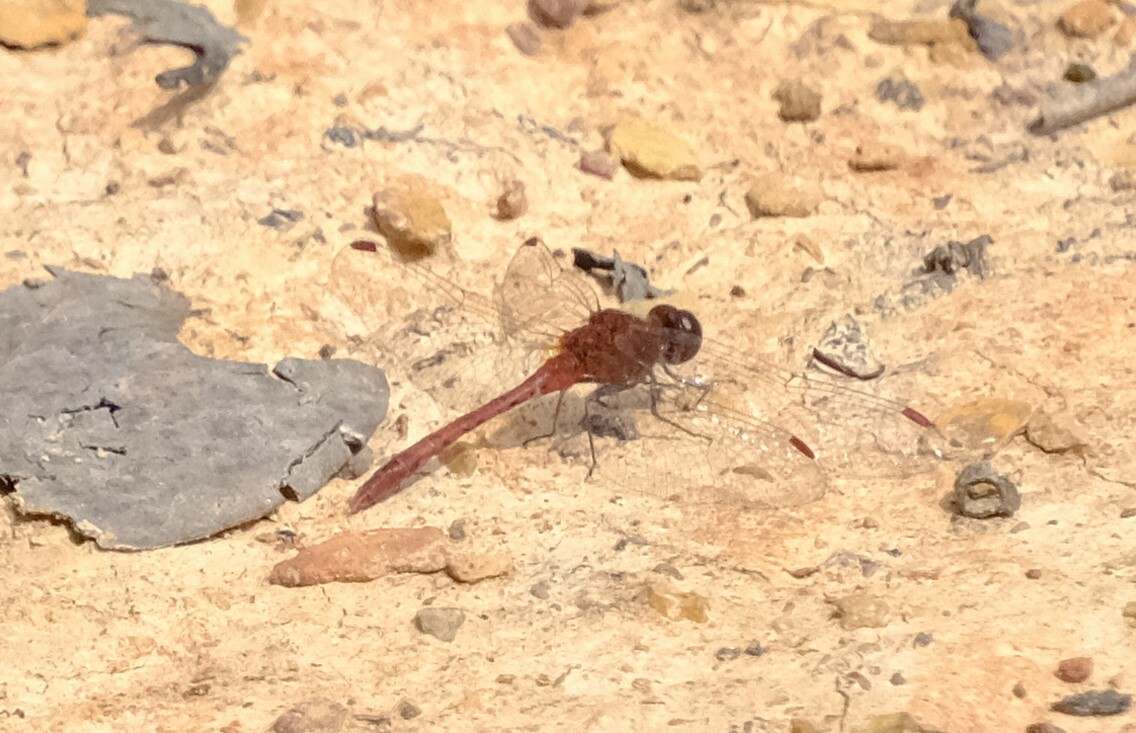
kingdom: Animalia
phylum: Arthropoda
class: Insecta
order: Odonata
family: Libellulidae
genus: Diplacodes
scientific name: Diplacodes bipunctata
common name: Red percher dragonfly
